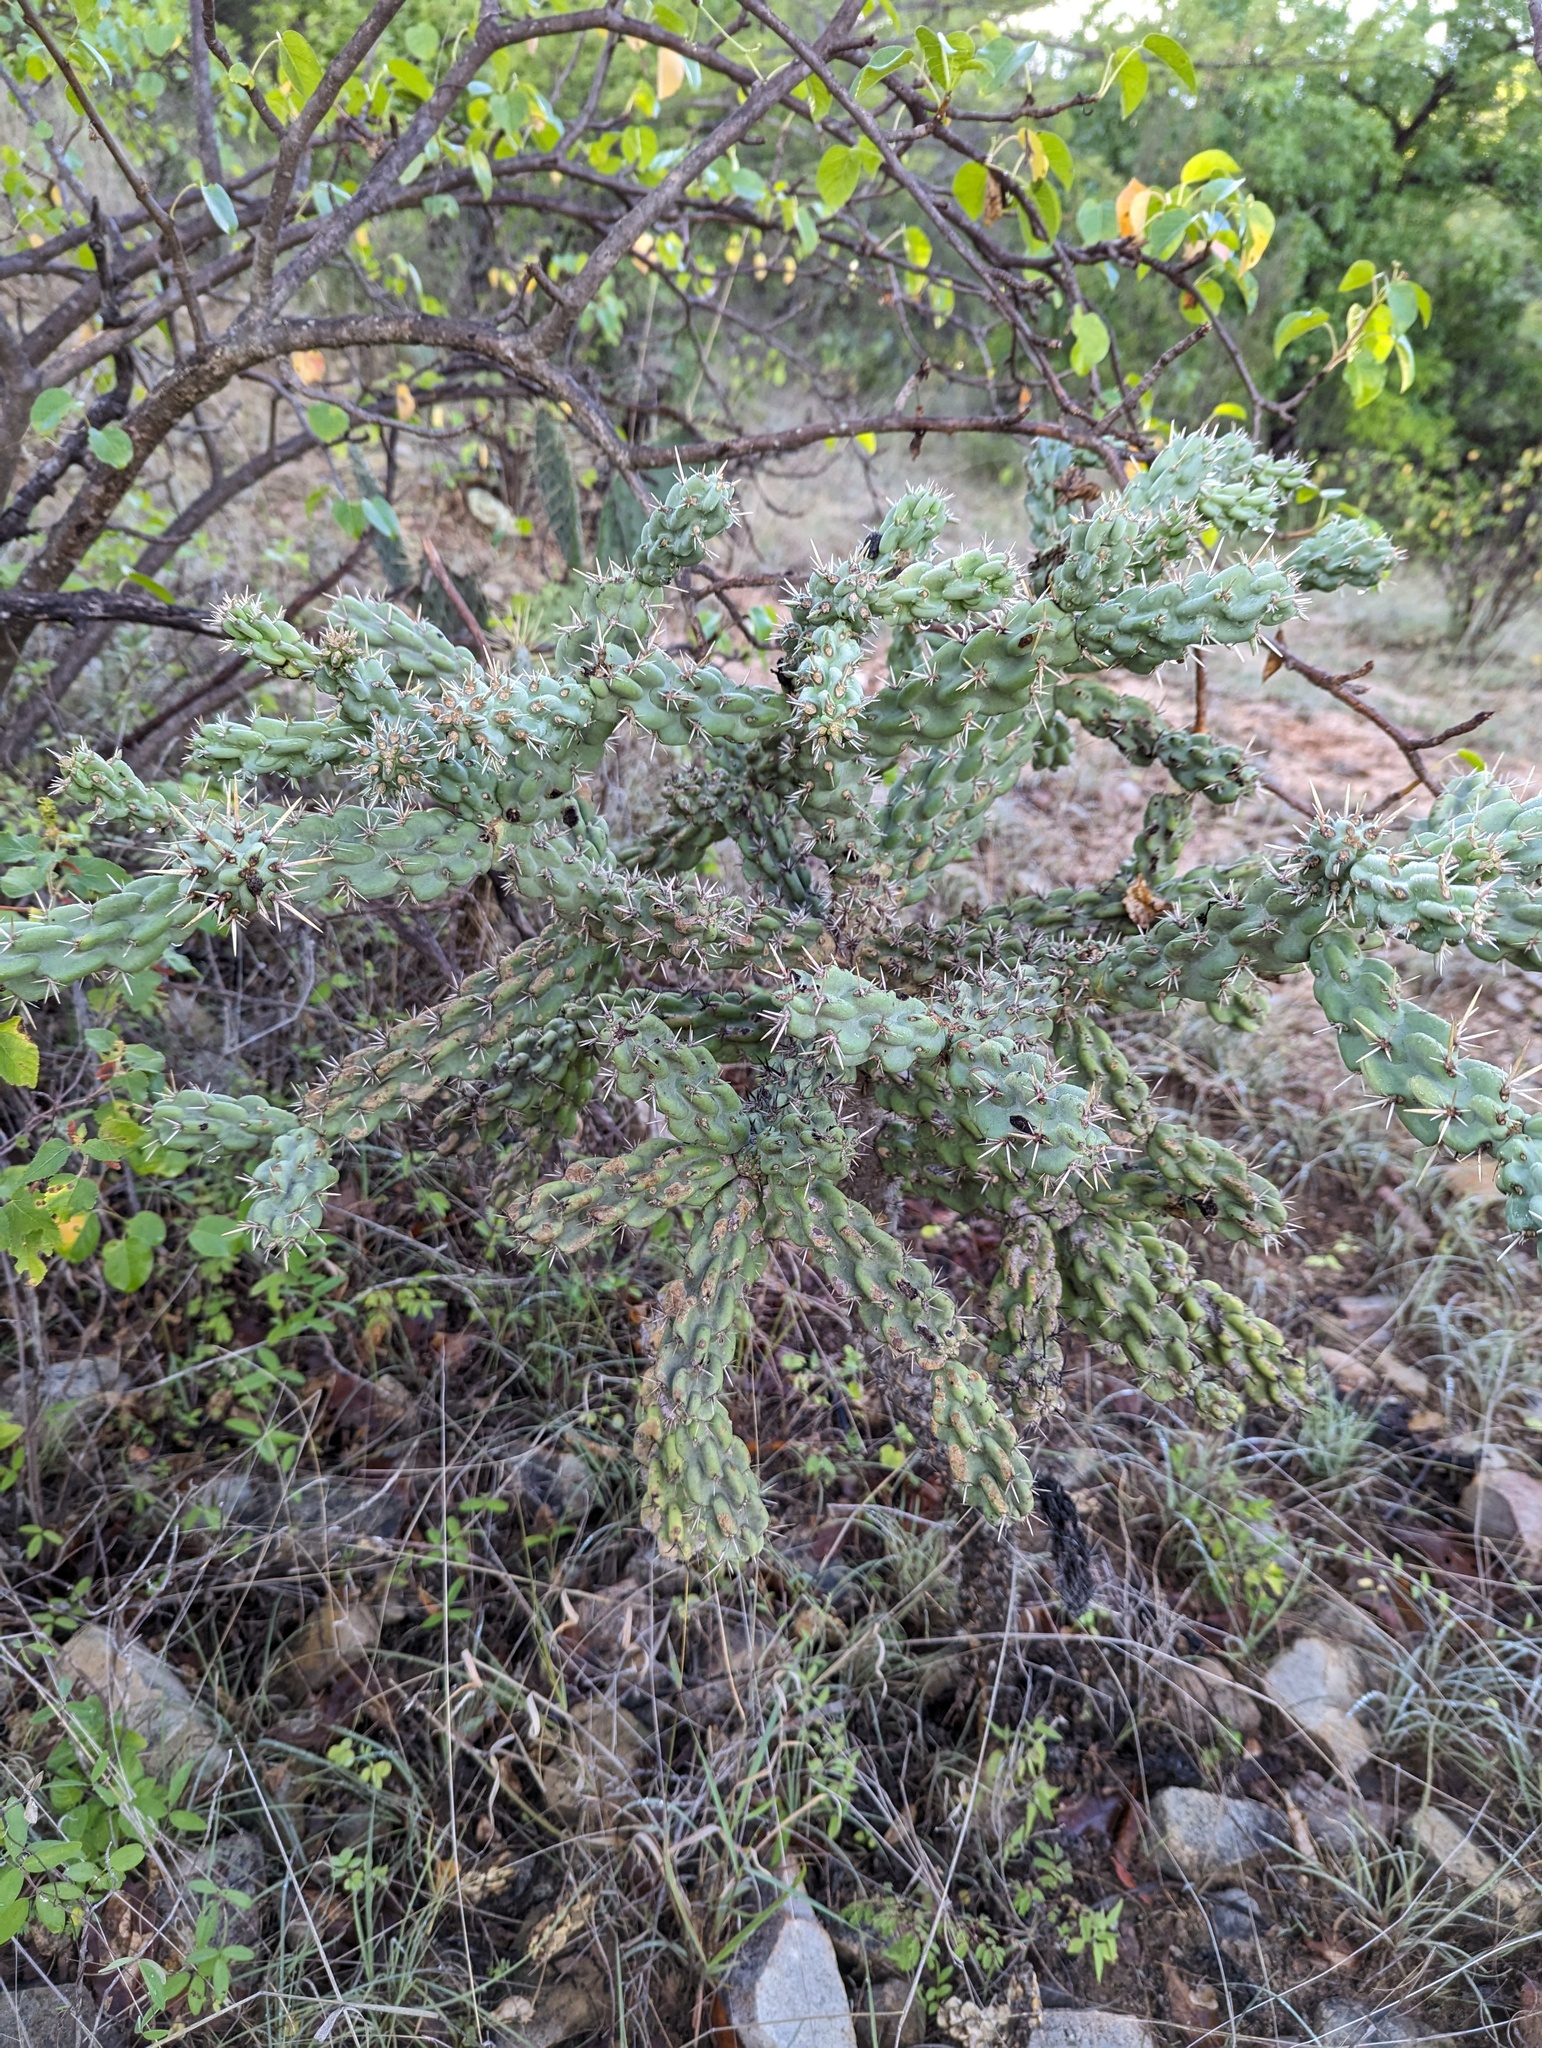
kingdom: Plantae
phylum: Tracheophyta
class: Magnoliopsida
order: Caryophyllales
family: Cactaceae
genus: Cylindropuntia
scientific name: Cylindropuntia cholla
